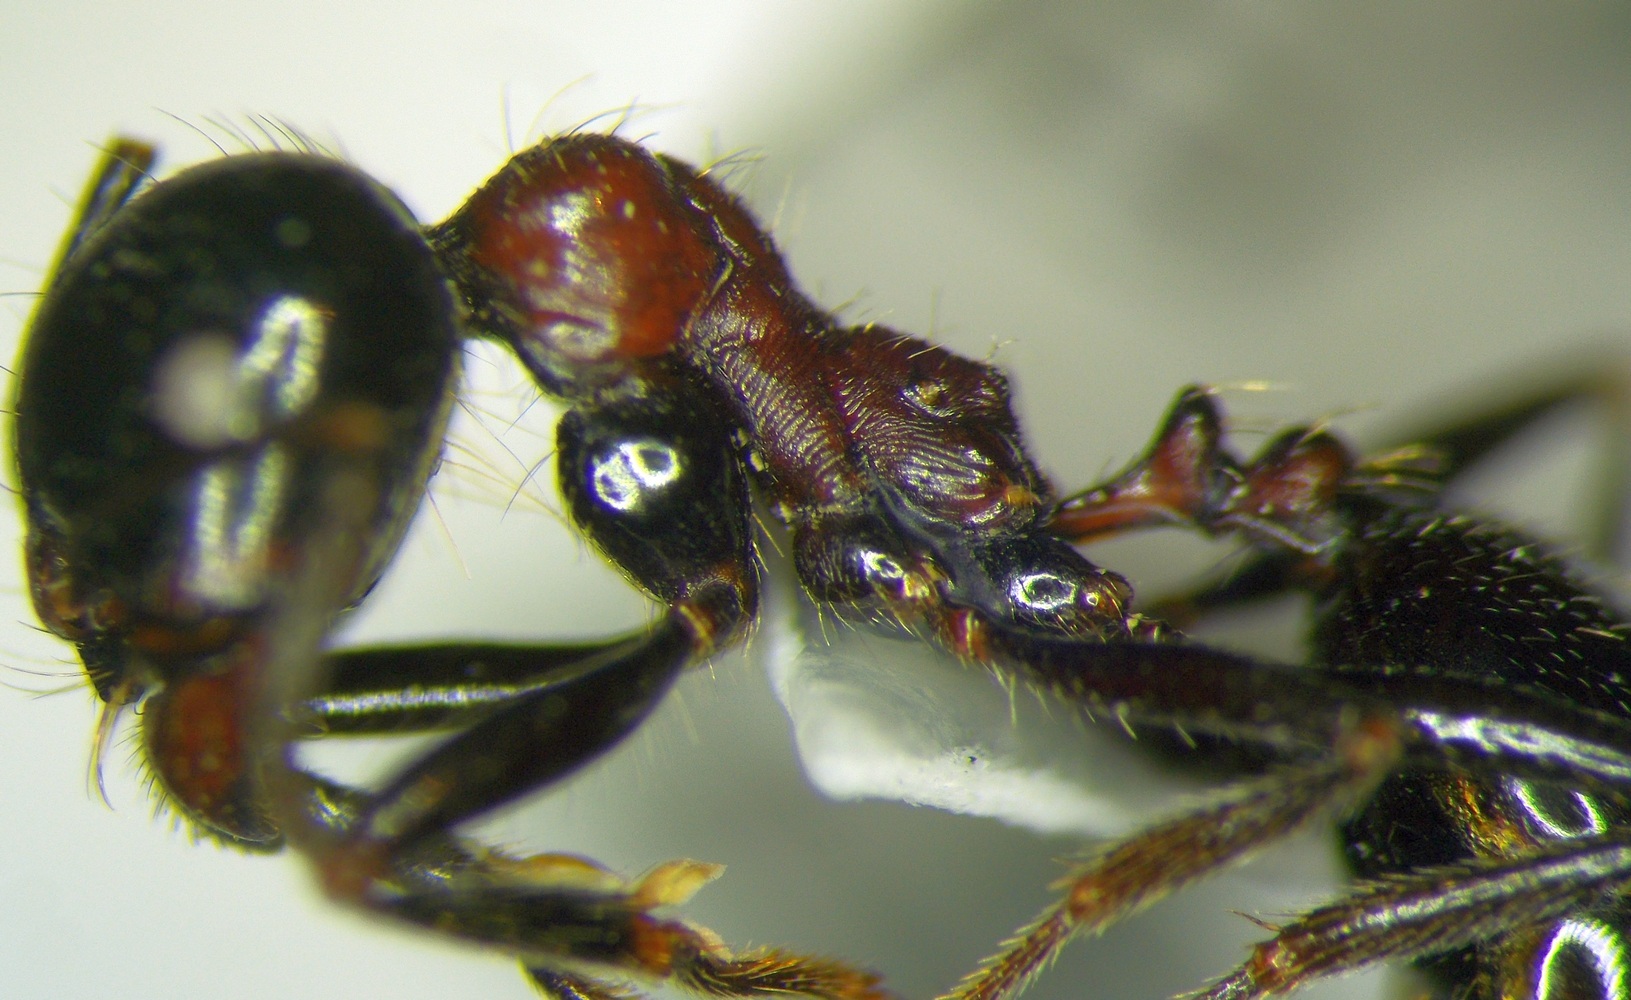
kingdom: Animalia
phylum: Arthropoda
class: Insecta
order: Hymenoptera
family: Formicidae
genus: Messor
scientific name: Messor denticulatus
